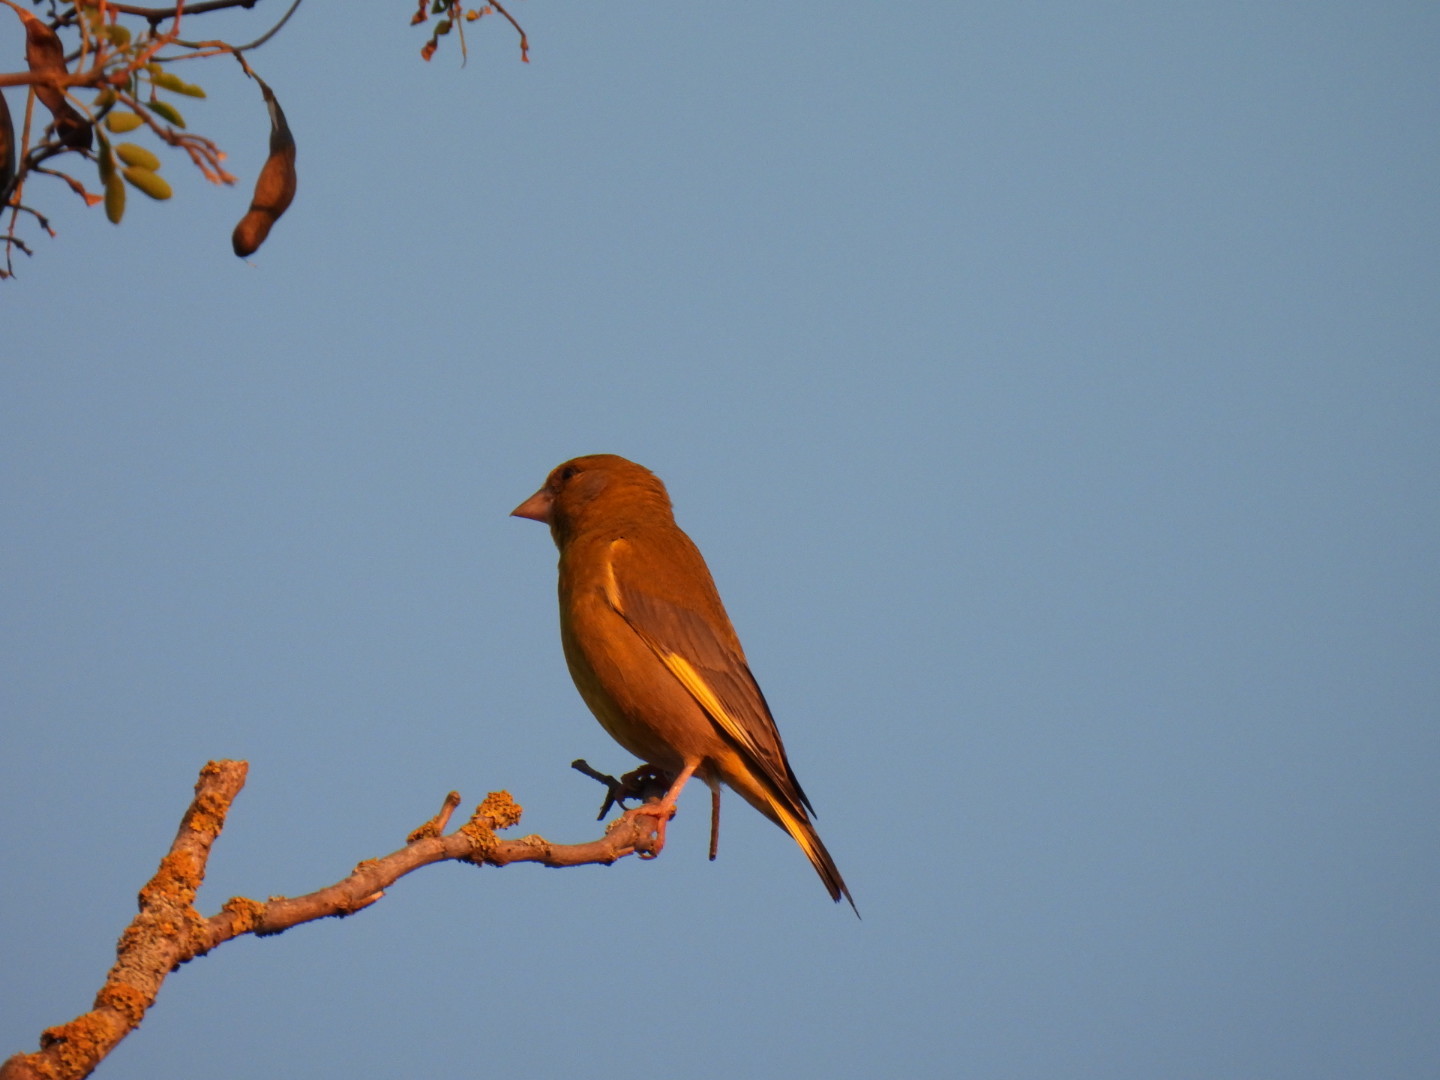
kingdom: Plantae
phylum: Tracheophyta
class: Liliopsida
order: Poales
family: Poaceae
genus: Chloris
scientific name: Chloris chloris
